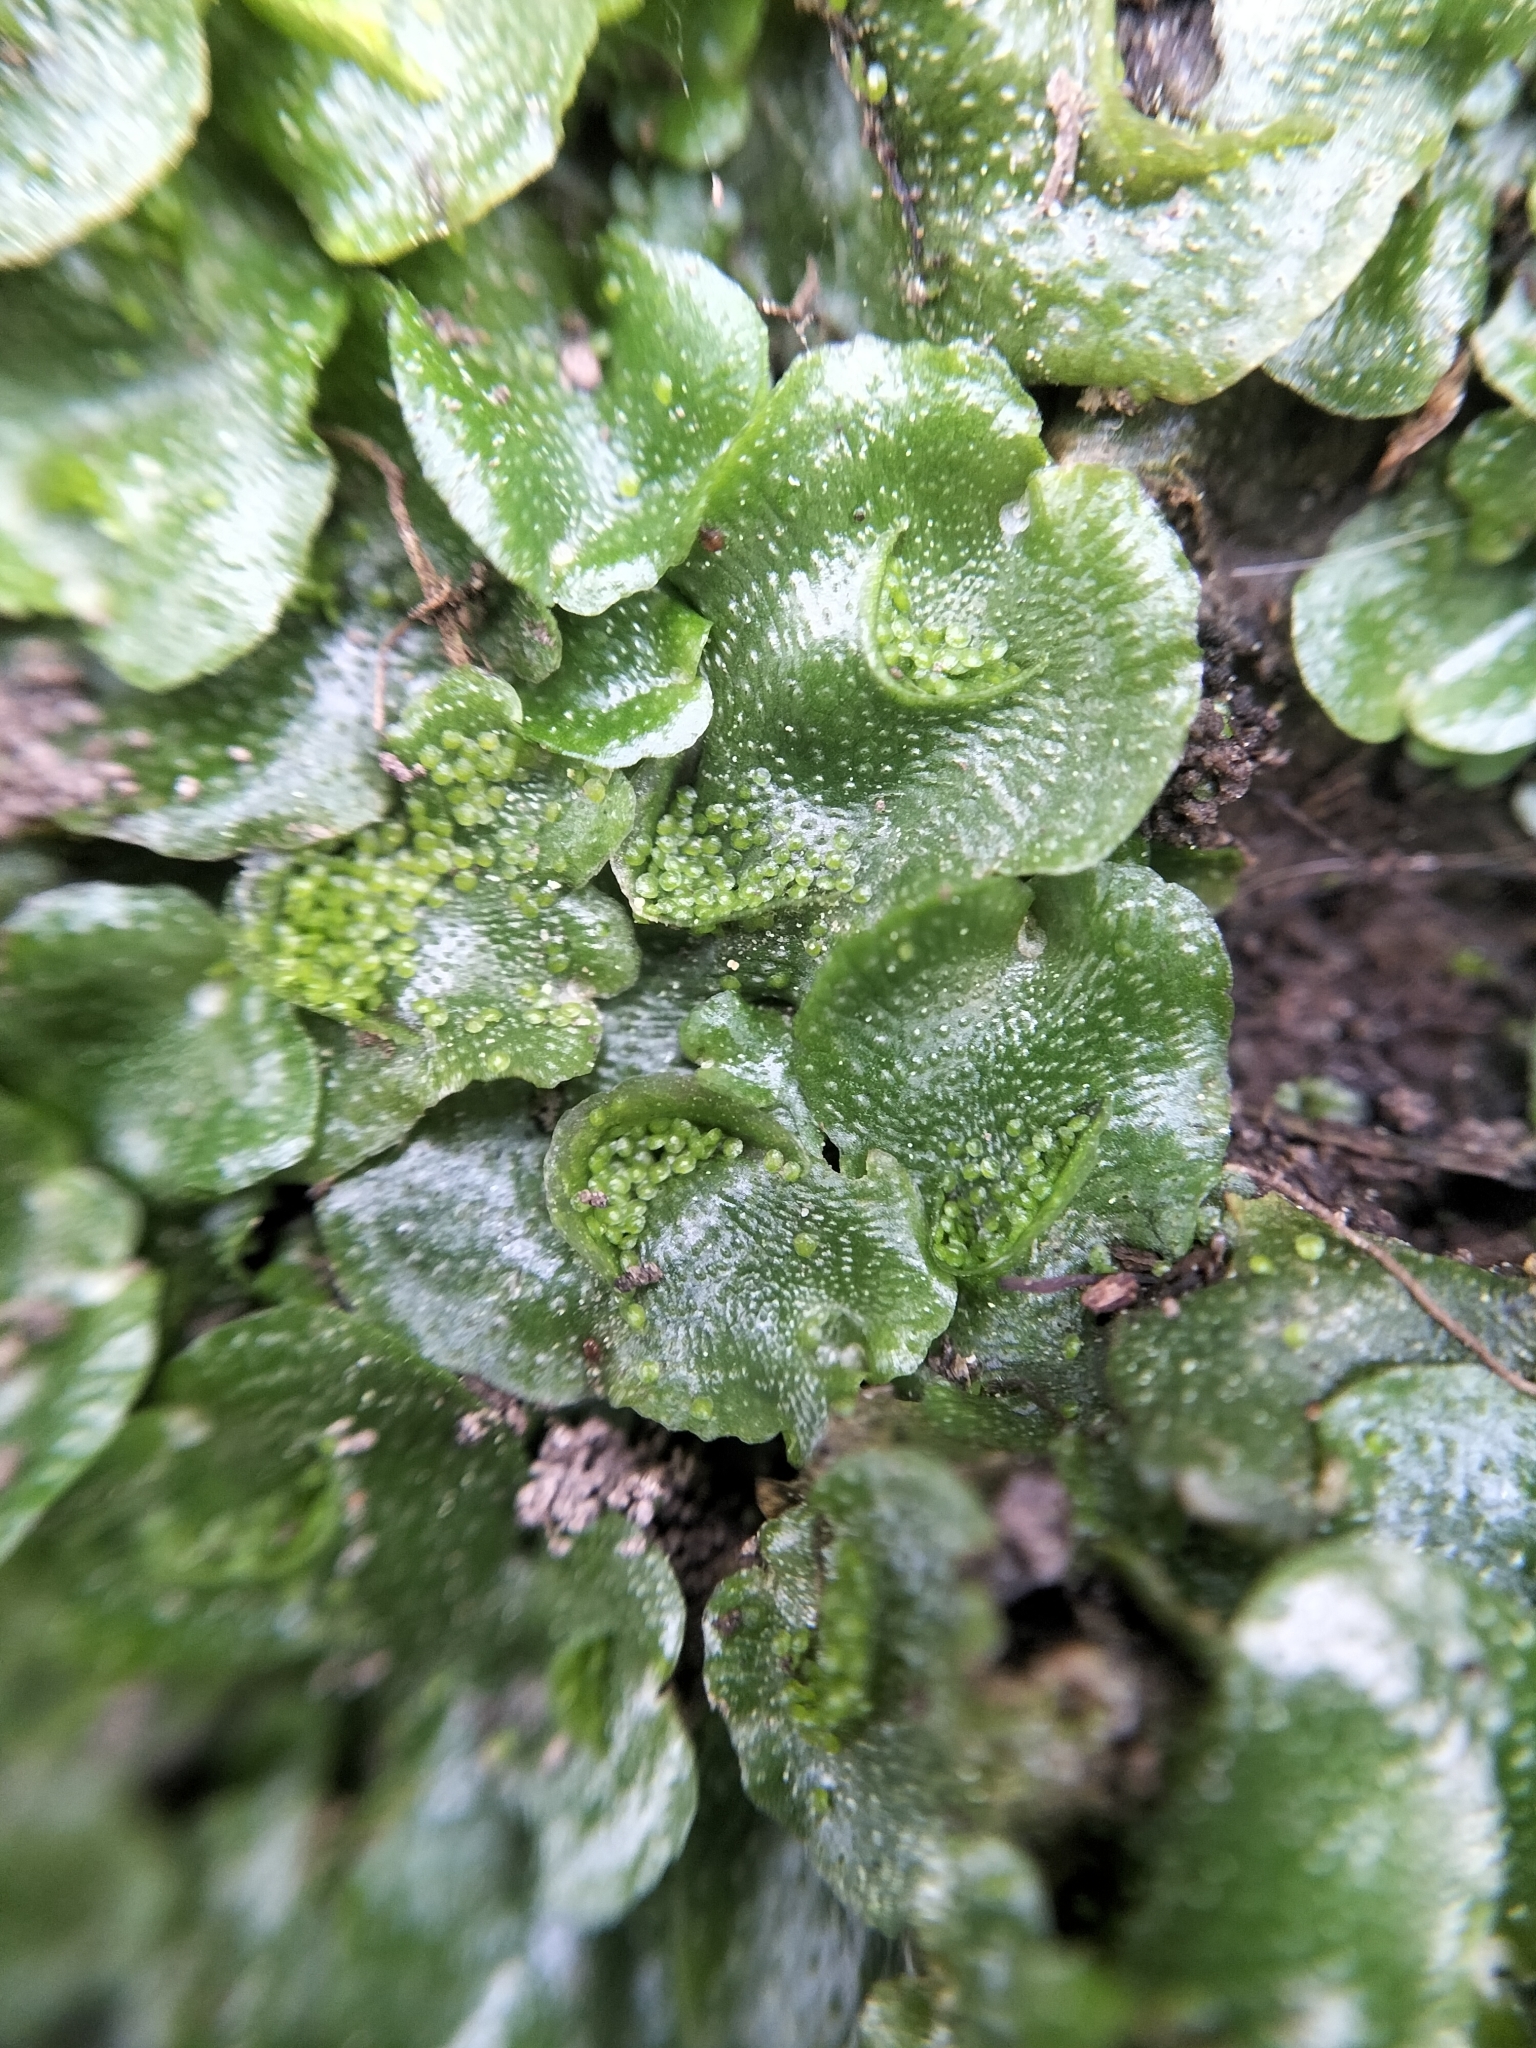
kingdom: Plantae
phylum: Marchantiophyta
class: Marchantiopsida
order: Lunulariales
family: Lunulariaceae
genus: Lunularia
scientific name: Lunularia cruciata
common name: Crescent-cup liverwort
